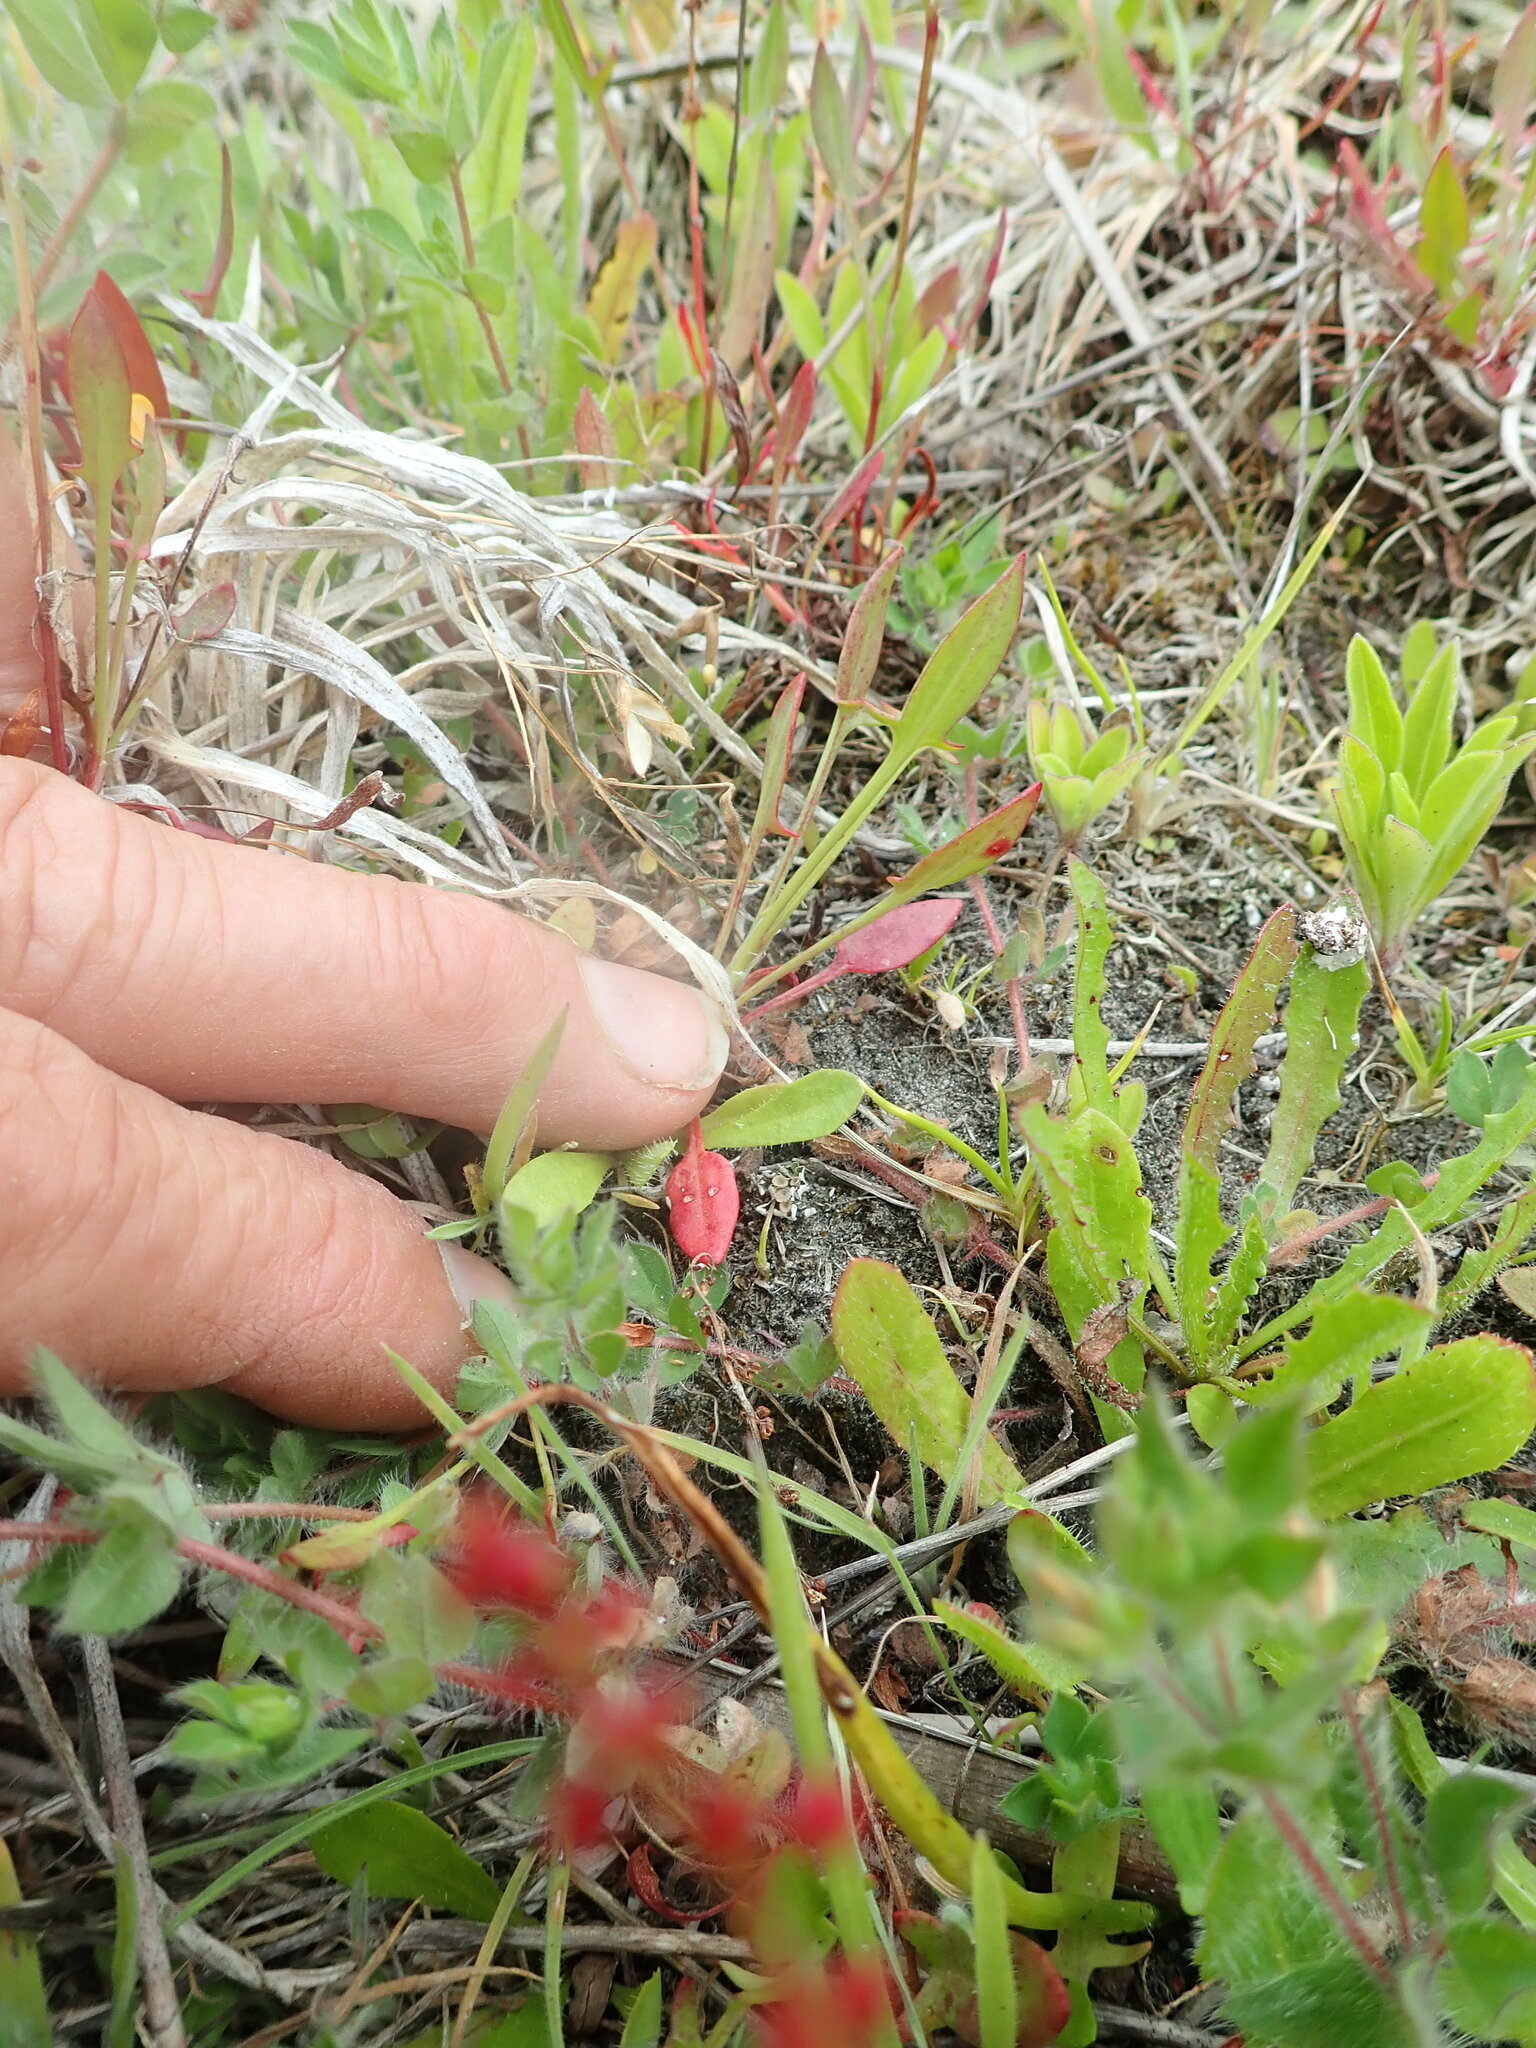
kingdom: Plantae
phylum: Tracheophyta
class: Magnoliopsida
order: Caryophyllales
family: Polygonaceae
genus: Rumex
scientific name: Rumex acetosella
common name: Common sheep sorrel
